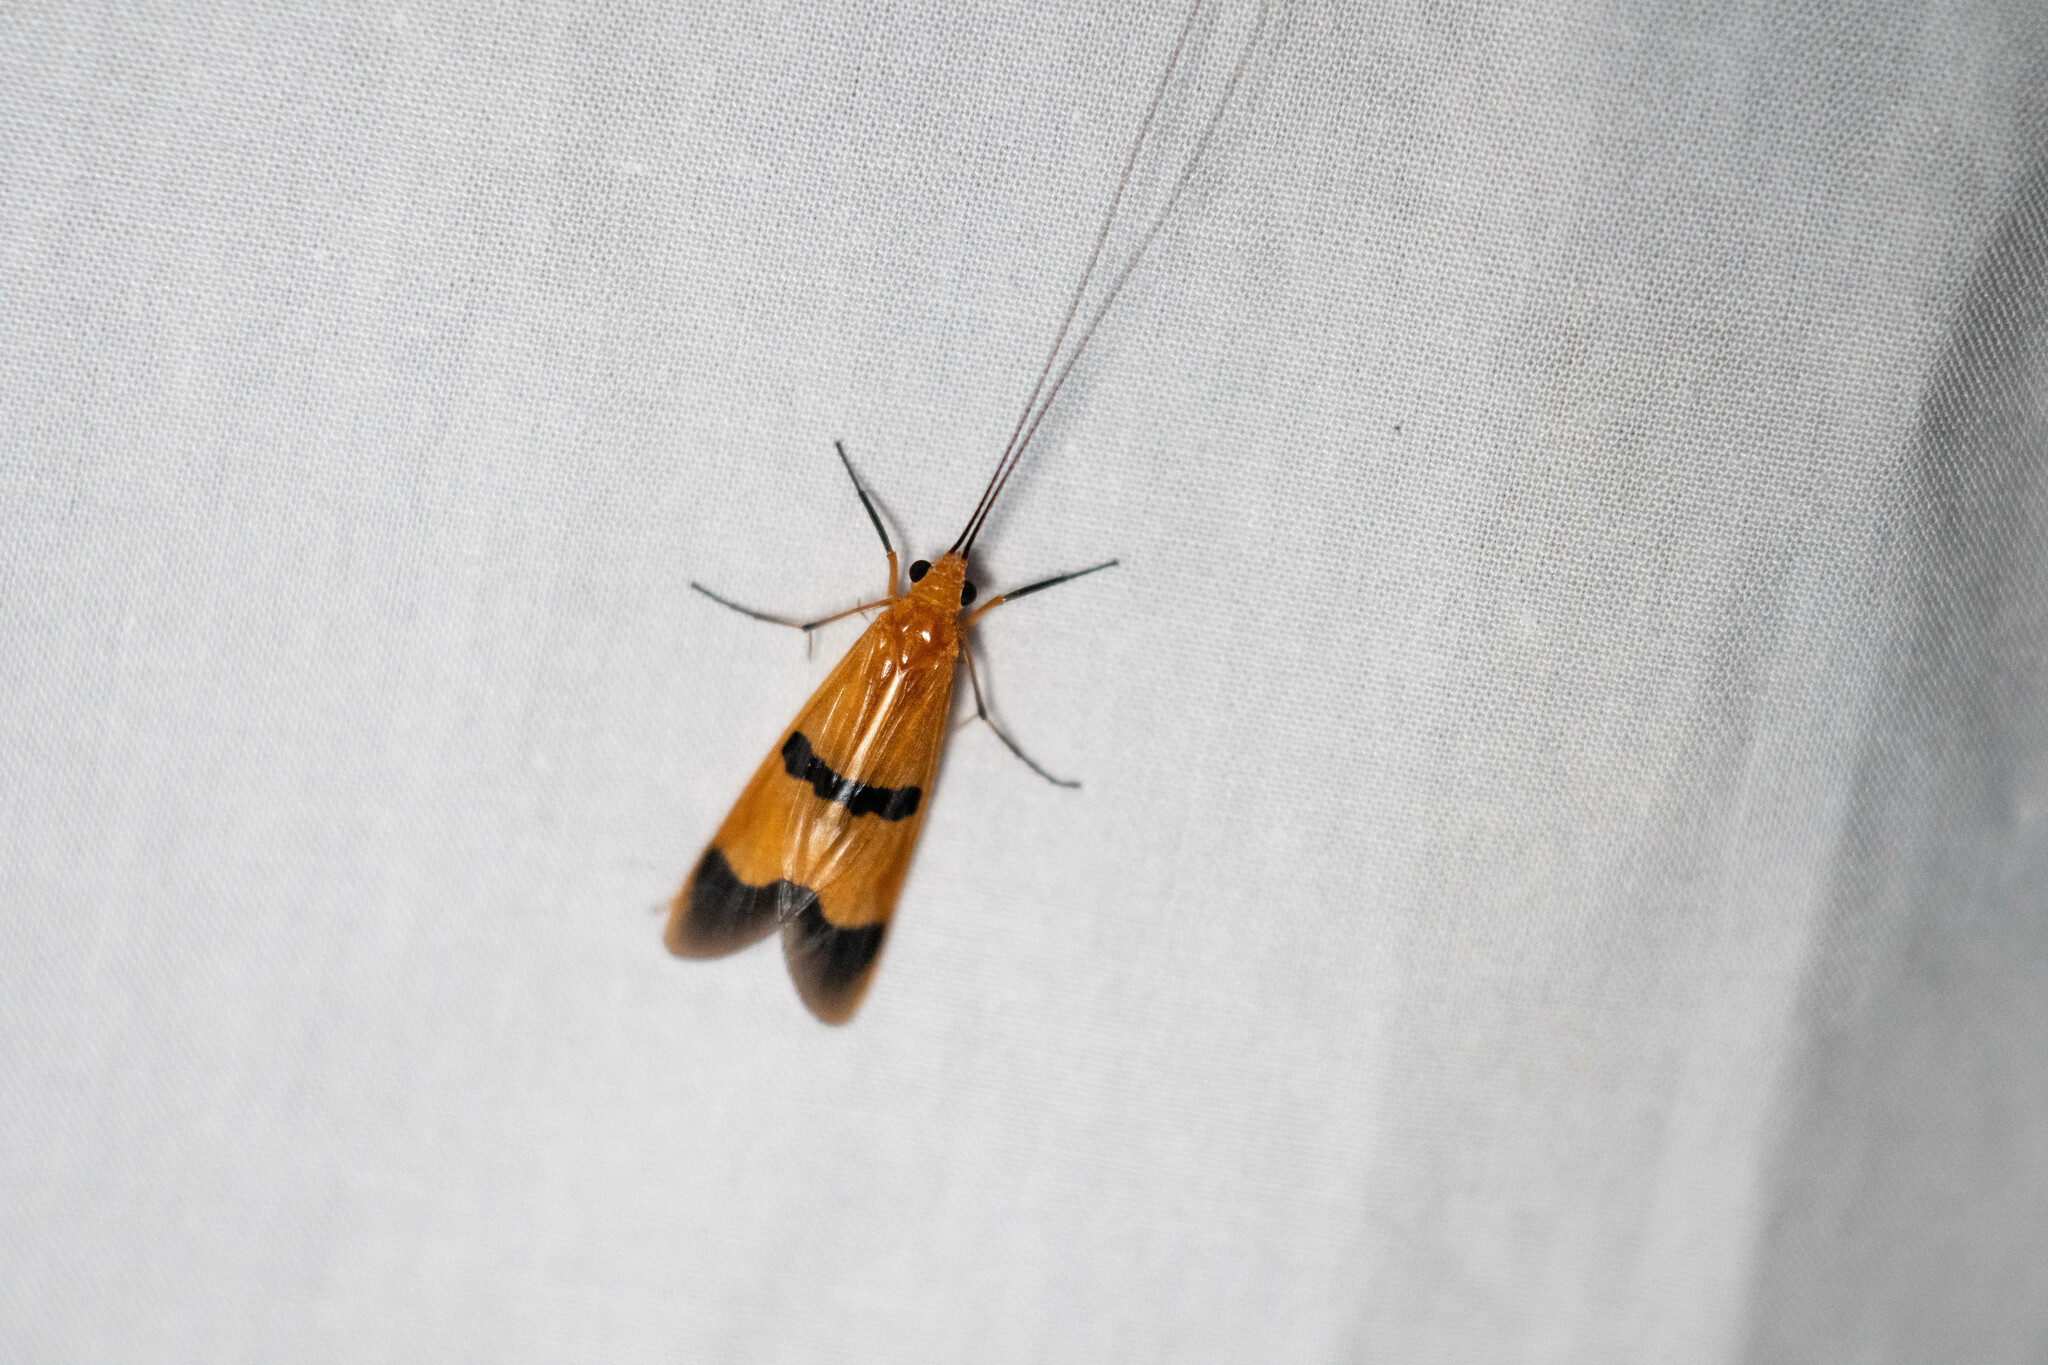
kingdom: Animalia
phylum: Arthropoda
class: Insecta
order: Trichoptera
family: Hydropsychidae
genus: Macrostemum
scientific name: Macrostemum fastosum
